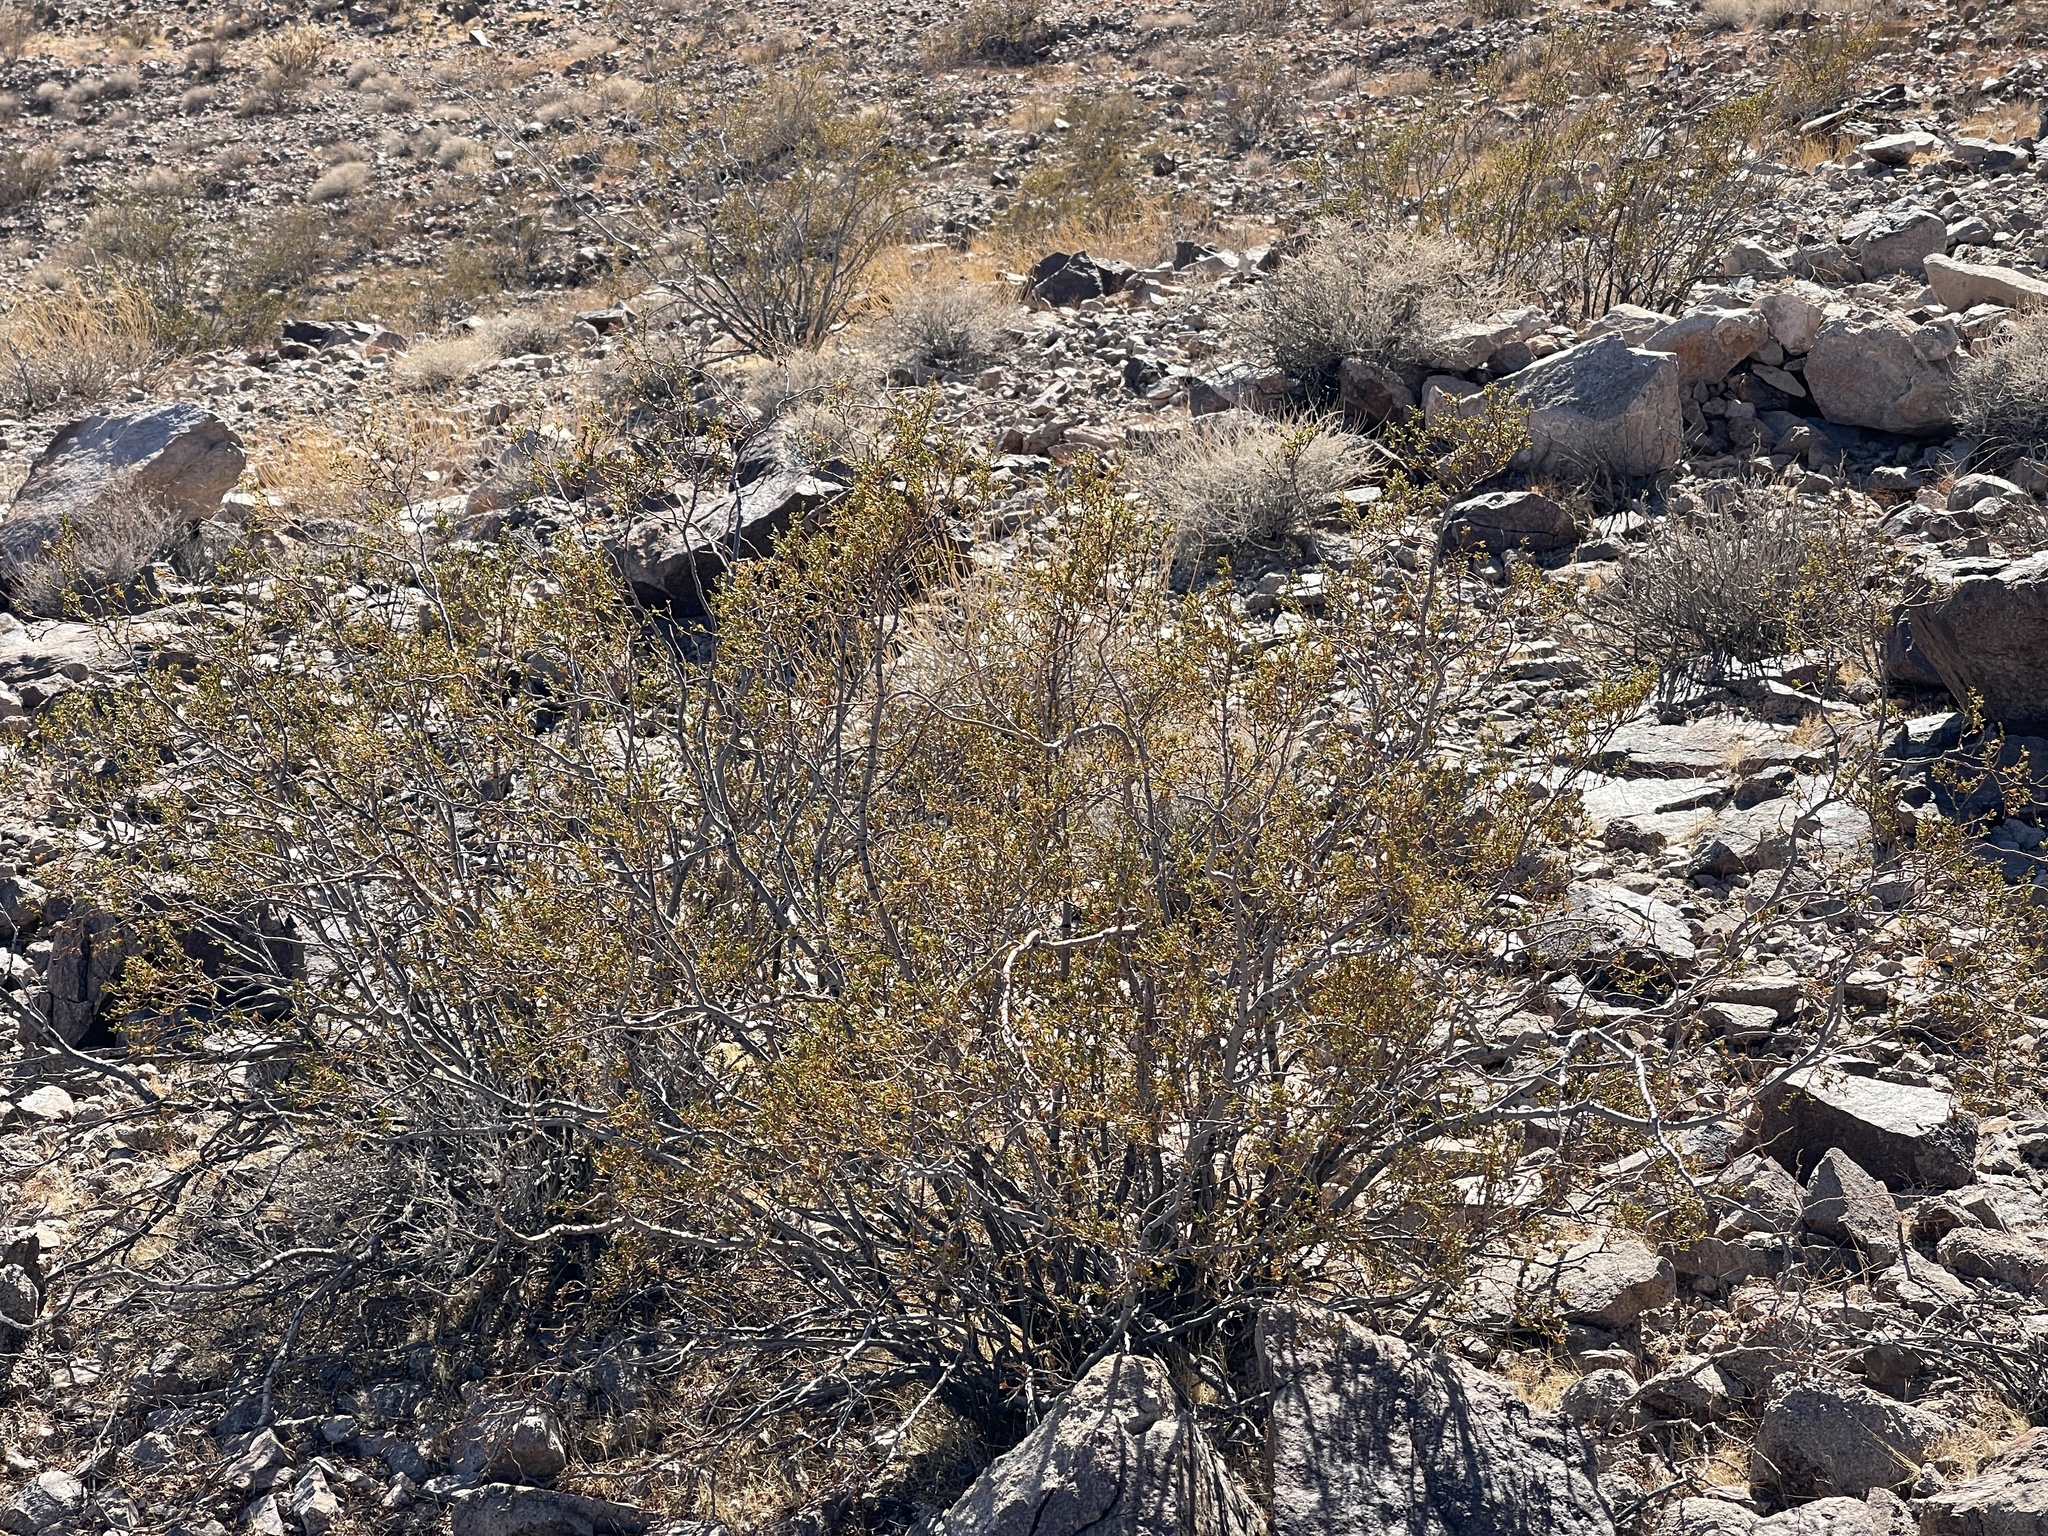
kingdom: Plantae
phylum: Tracheophyta
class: Magnoliopsida
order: Zygophyllales
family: Zygophyllaceae
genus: Larrea
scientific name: Larrea tridentata
